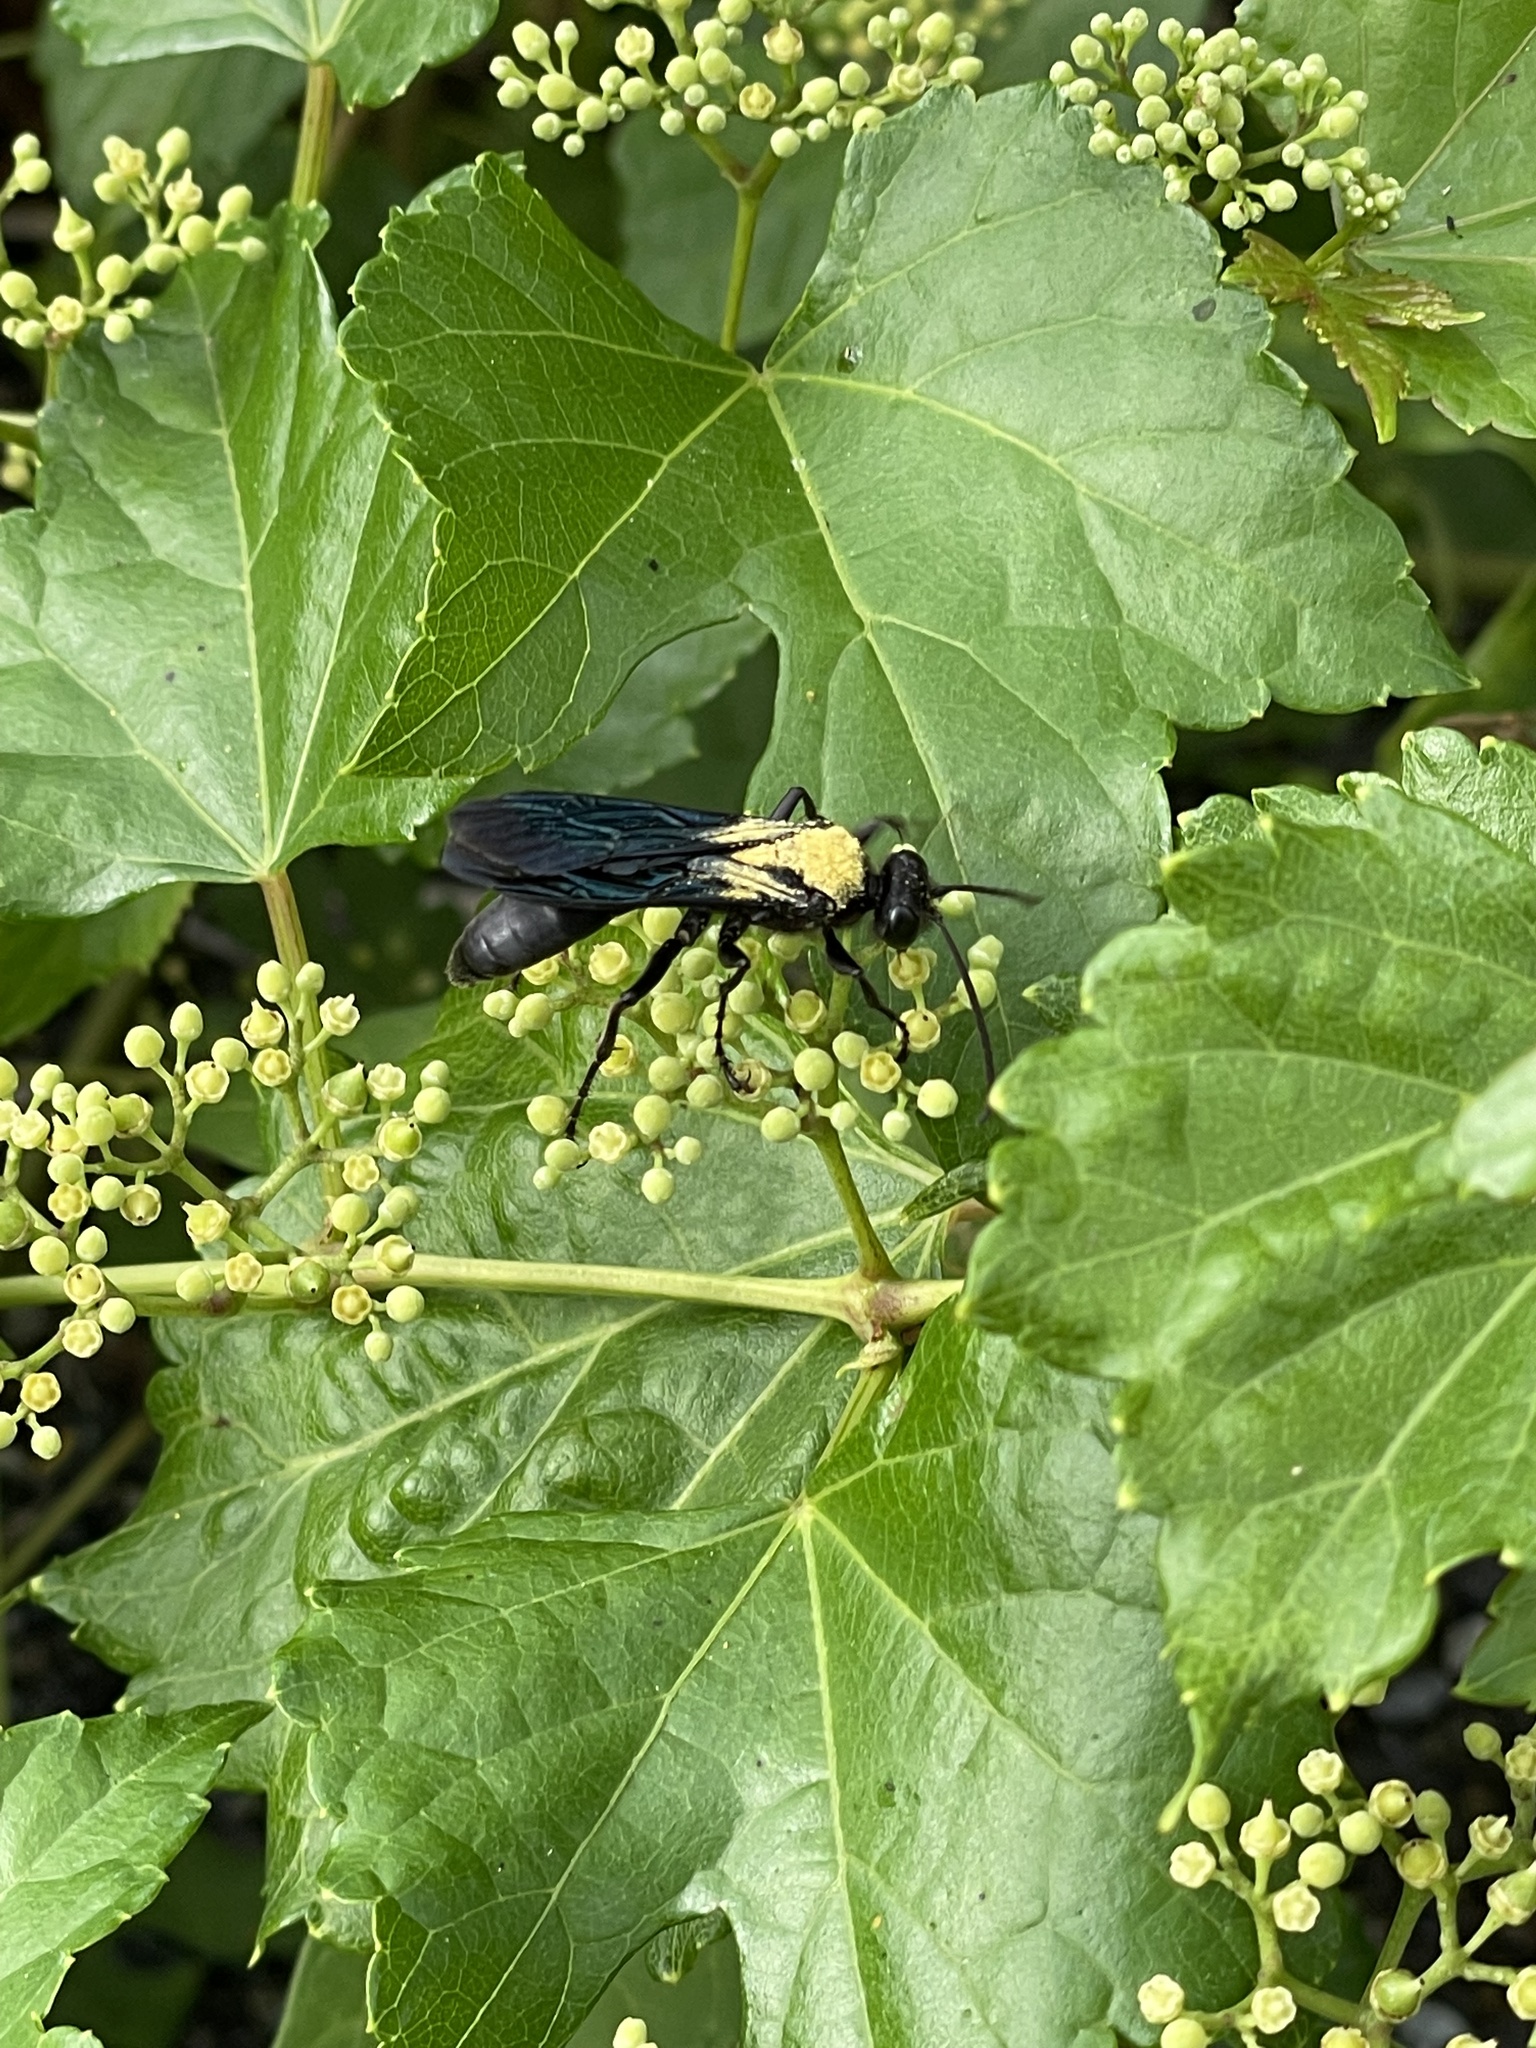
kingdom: Animalia
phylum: Arthropoda
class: Insecta
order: Hymenoptera
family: Sphecidae
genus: Sphex
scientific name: Sphex pensylvanicus
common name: Great black digger wasp
